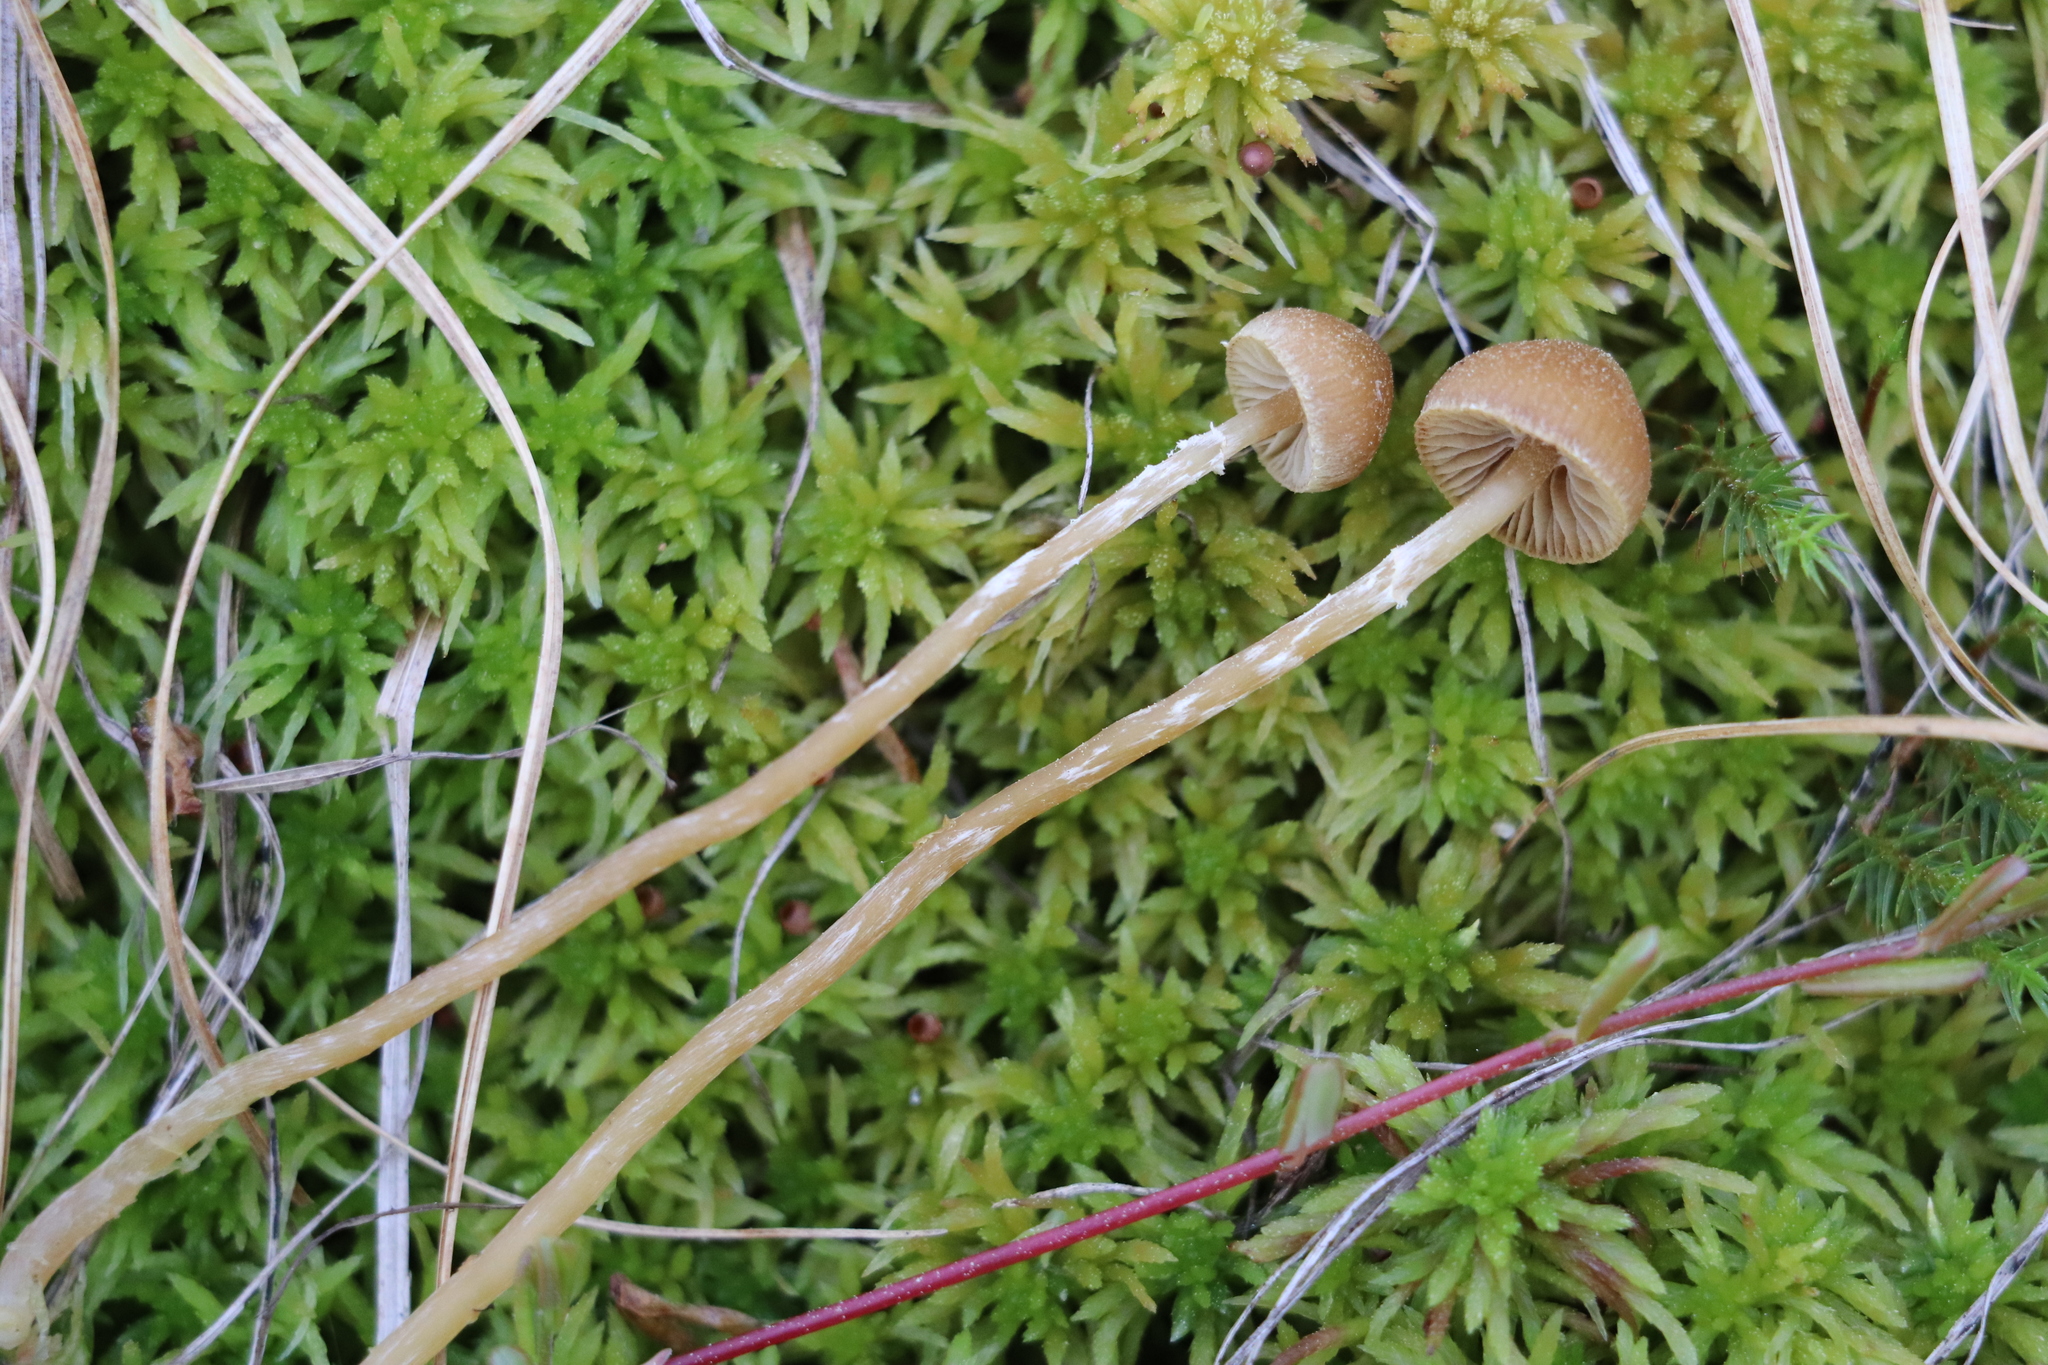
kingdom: Fungi
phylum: Basidiomycota
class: Agaricomycetes
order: Agaricales
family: Hymenogastraceae
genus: Galerina
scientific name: Galerina paludosa
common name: Bog bell
